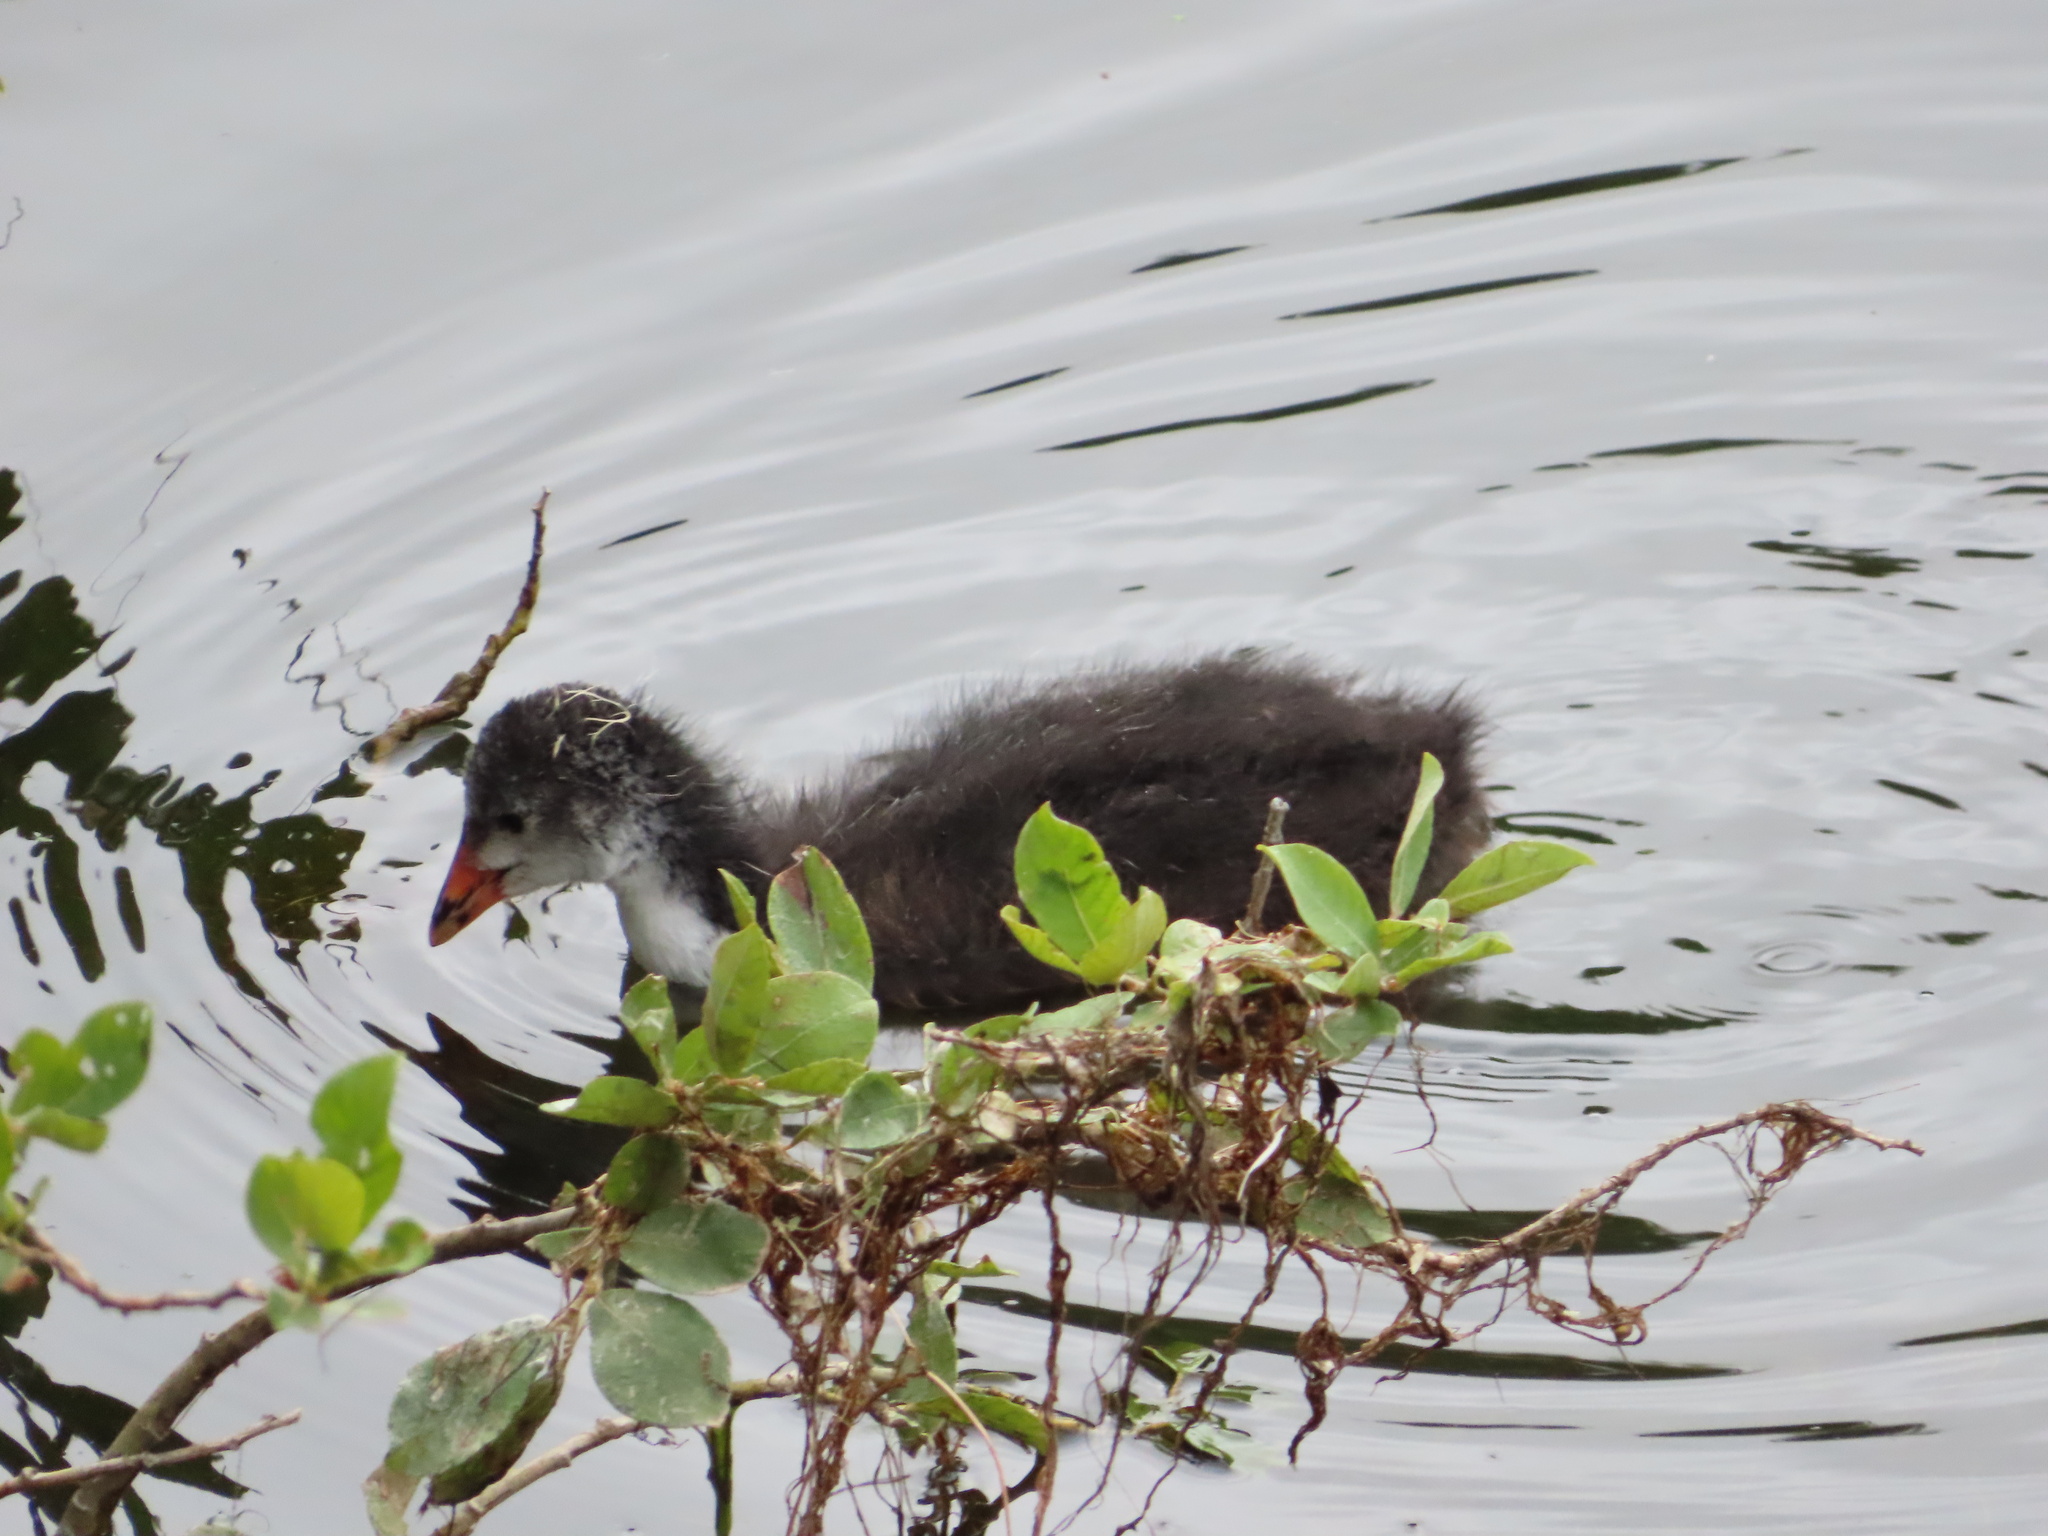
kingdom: Animalia
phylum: Chordata
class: Aves
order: Gruiformes
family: Rallidae
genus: Fulica
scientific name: Fulica atra
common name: Eurasian coot
